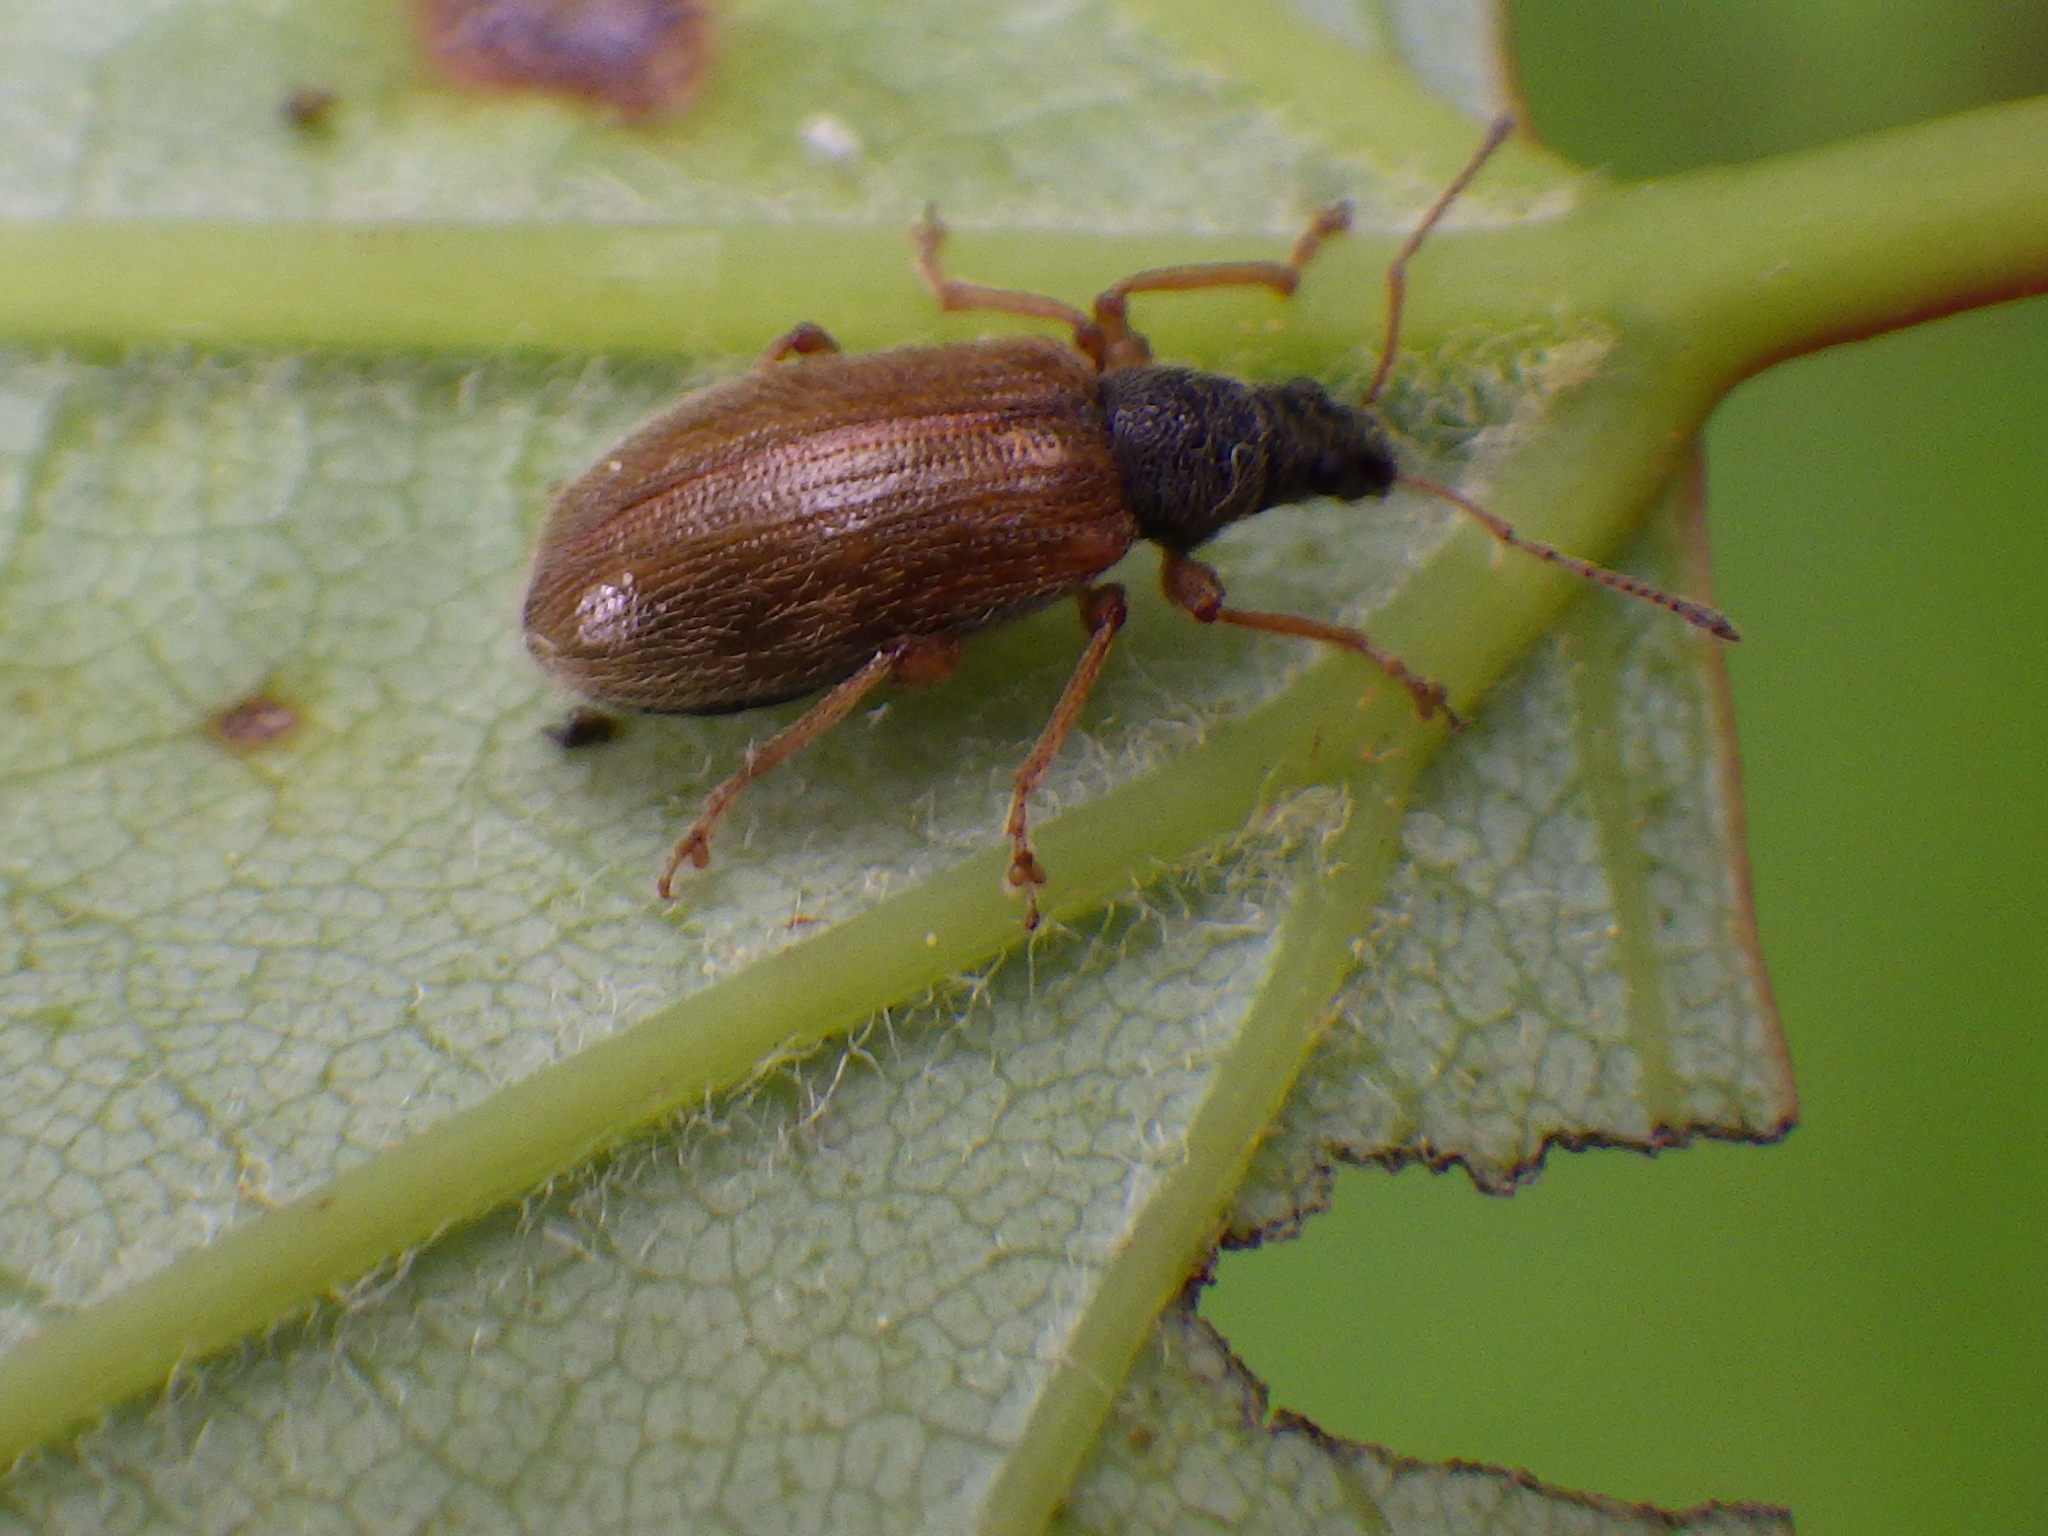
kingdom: Animalia
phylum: Arthropoda
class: Insecta
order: Coleoptera
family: Curculionidae
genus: Phyllobius
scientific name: Phyllobius oblongus
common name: Brown leaf weevil
